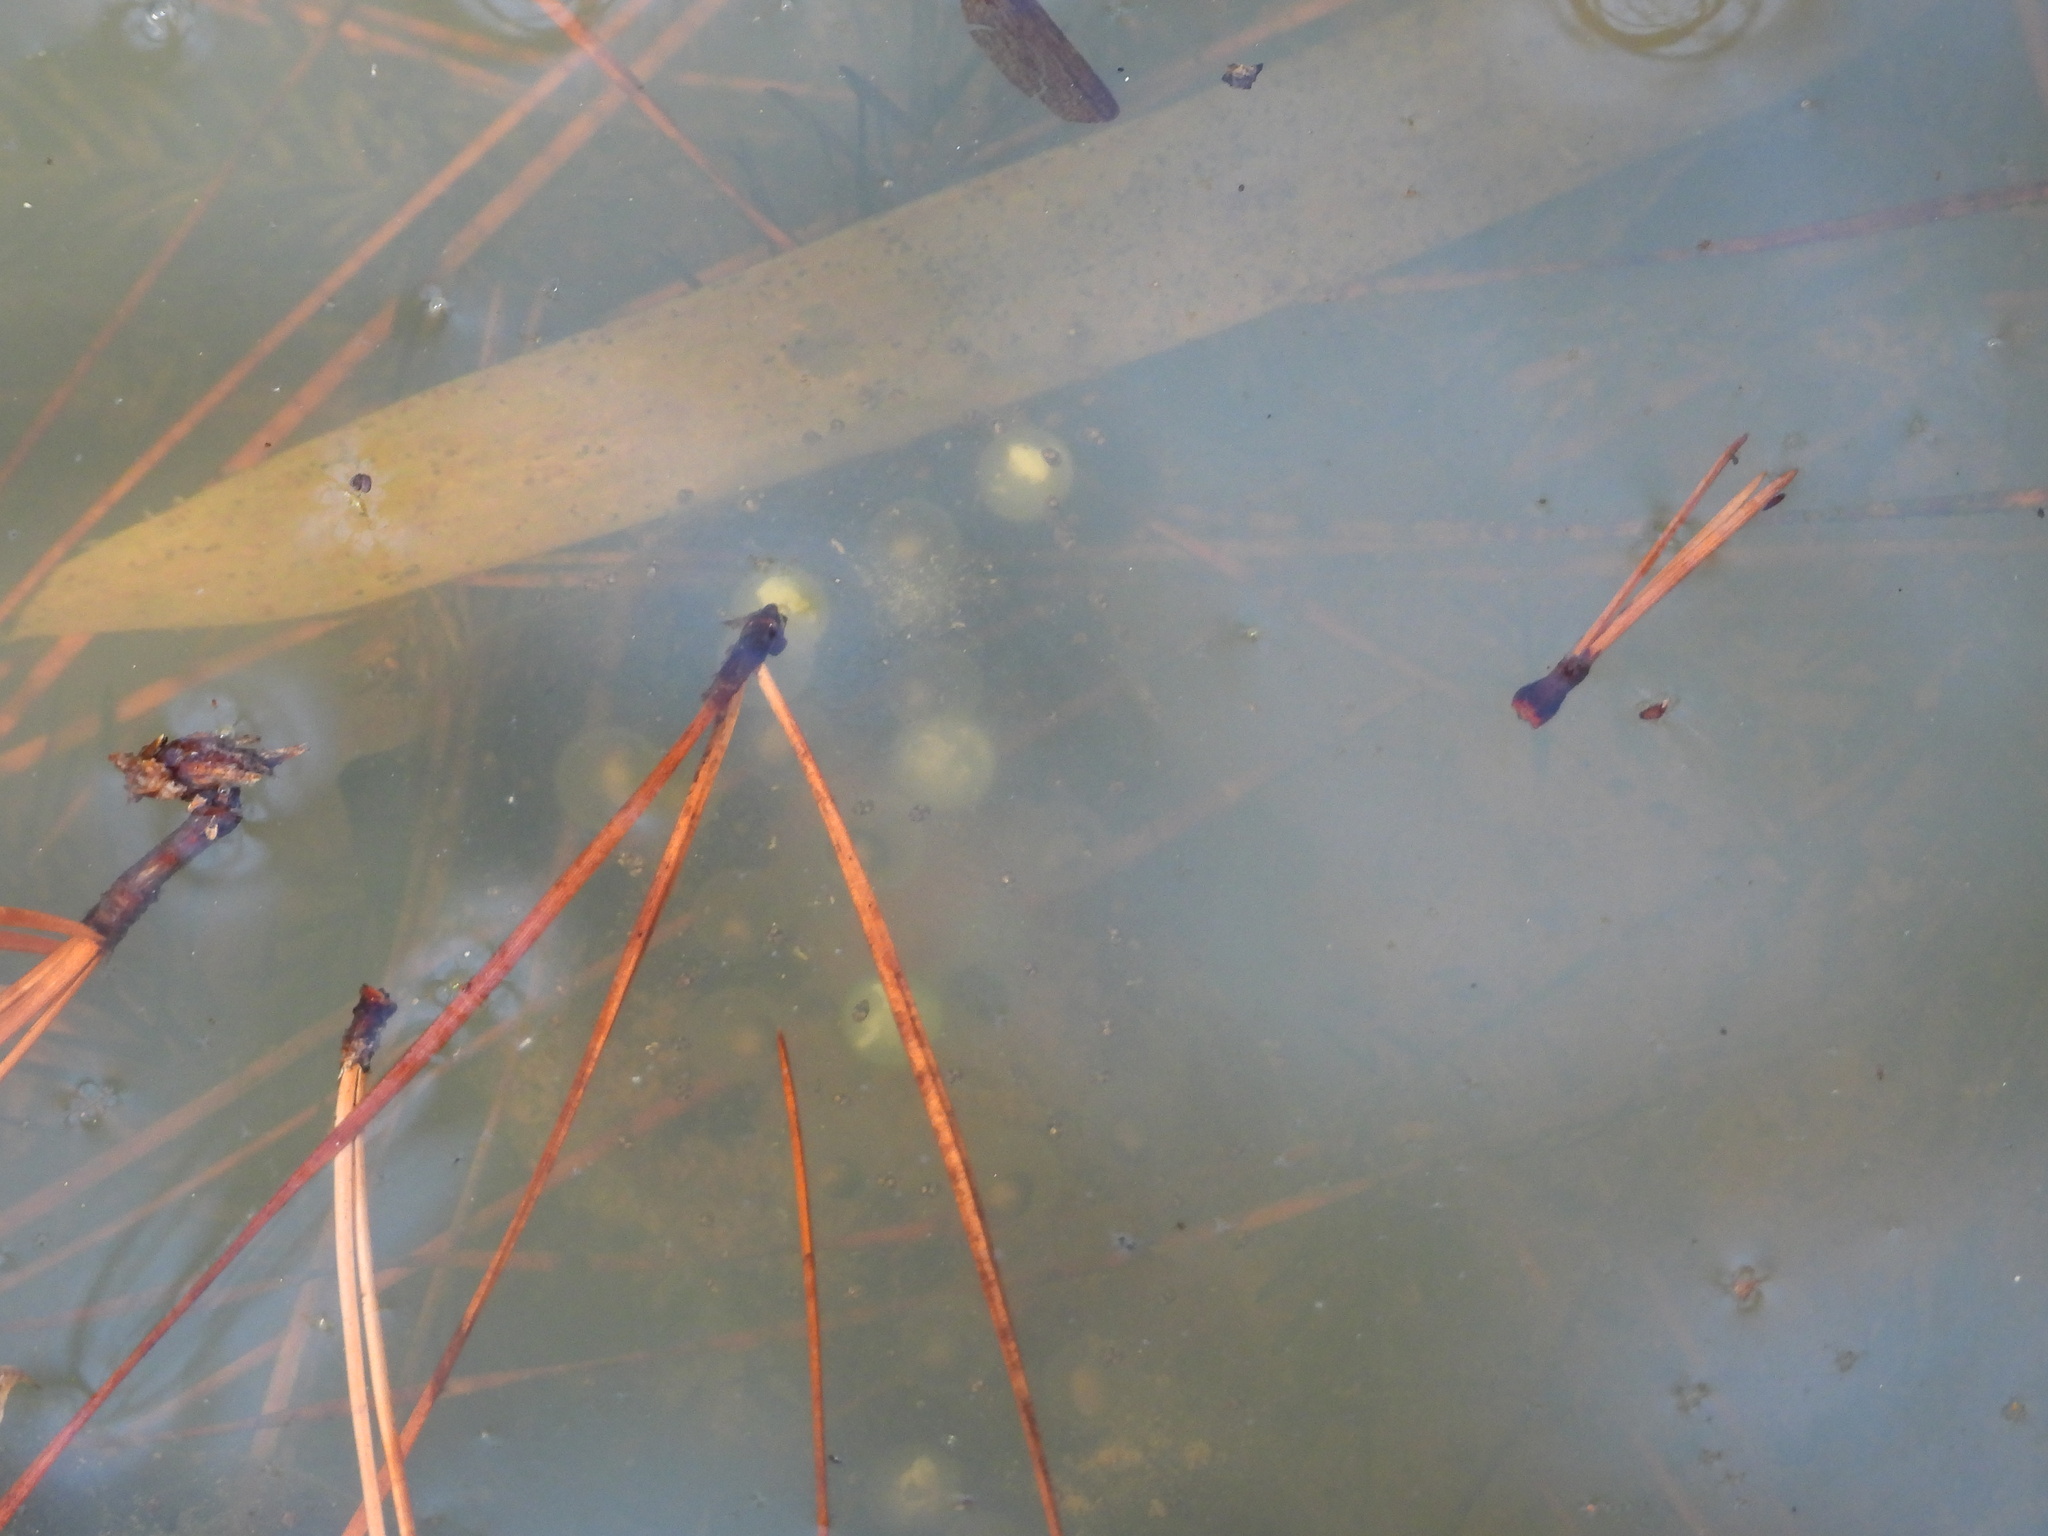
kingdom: Animalia
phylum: Chordata
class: Amphibia
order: Caudata
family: Ambystomatidae
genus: Ambystoma
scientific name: Ambystoma maculatum
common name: Spotted salamander
